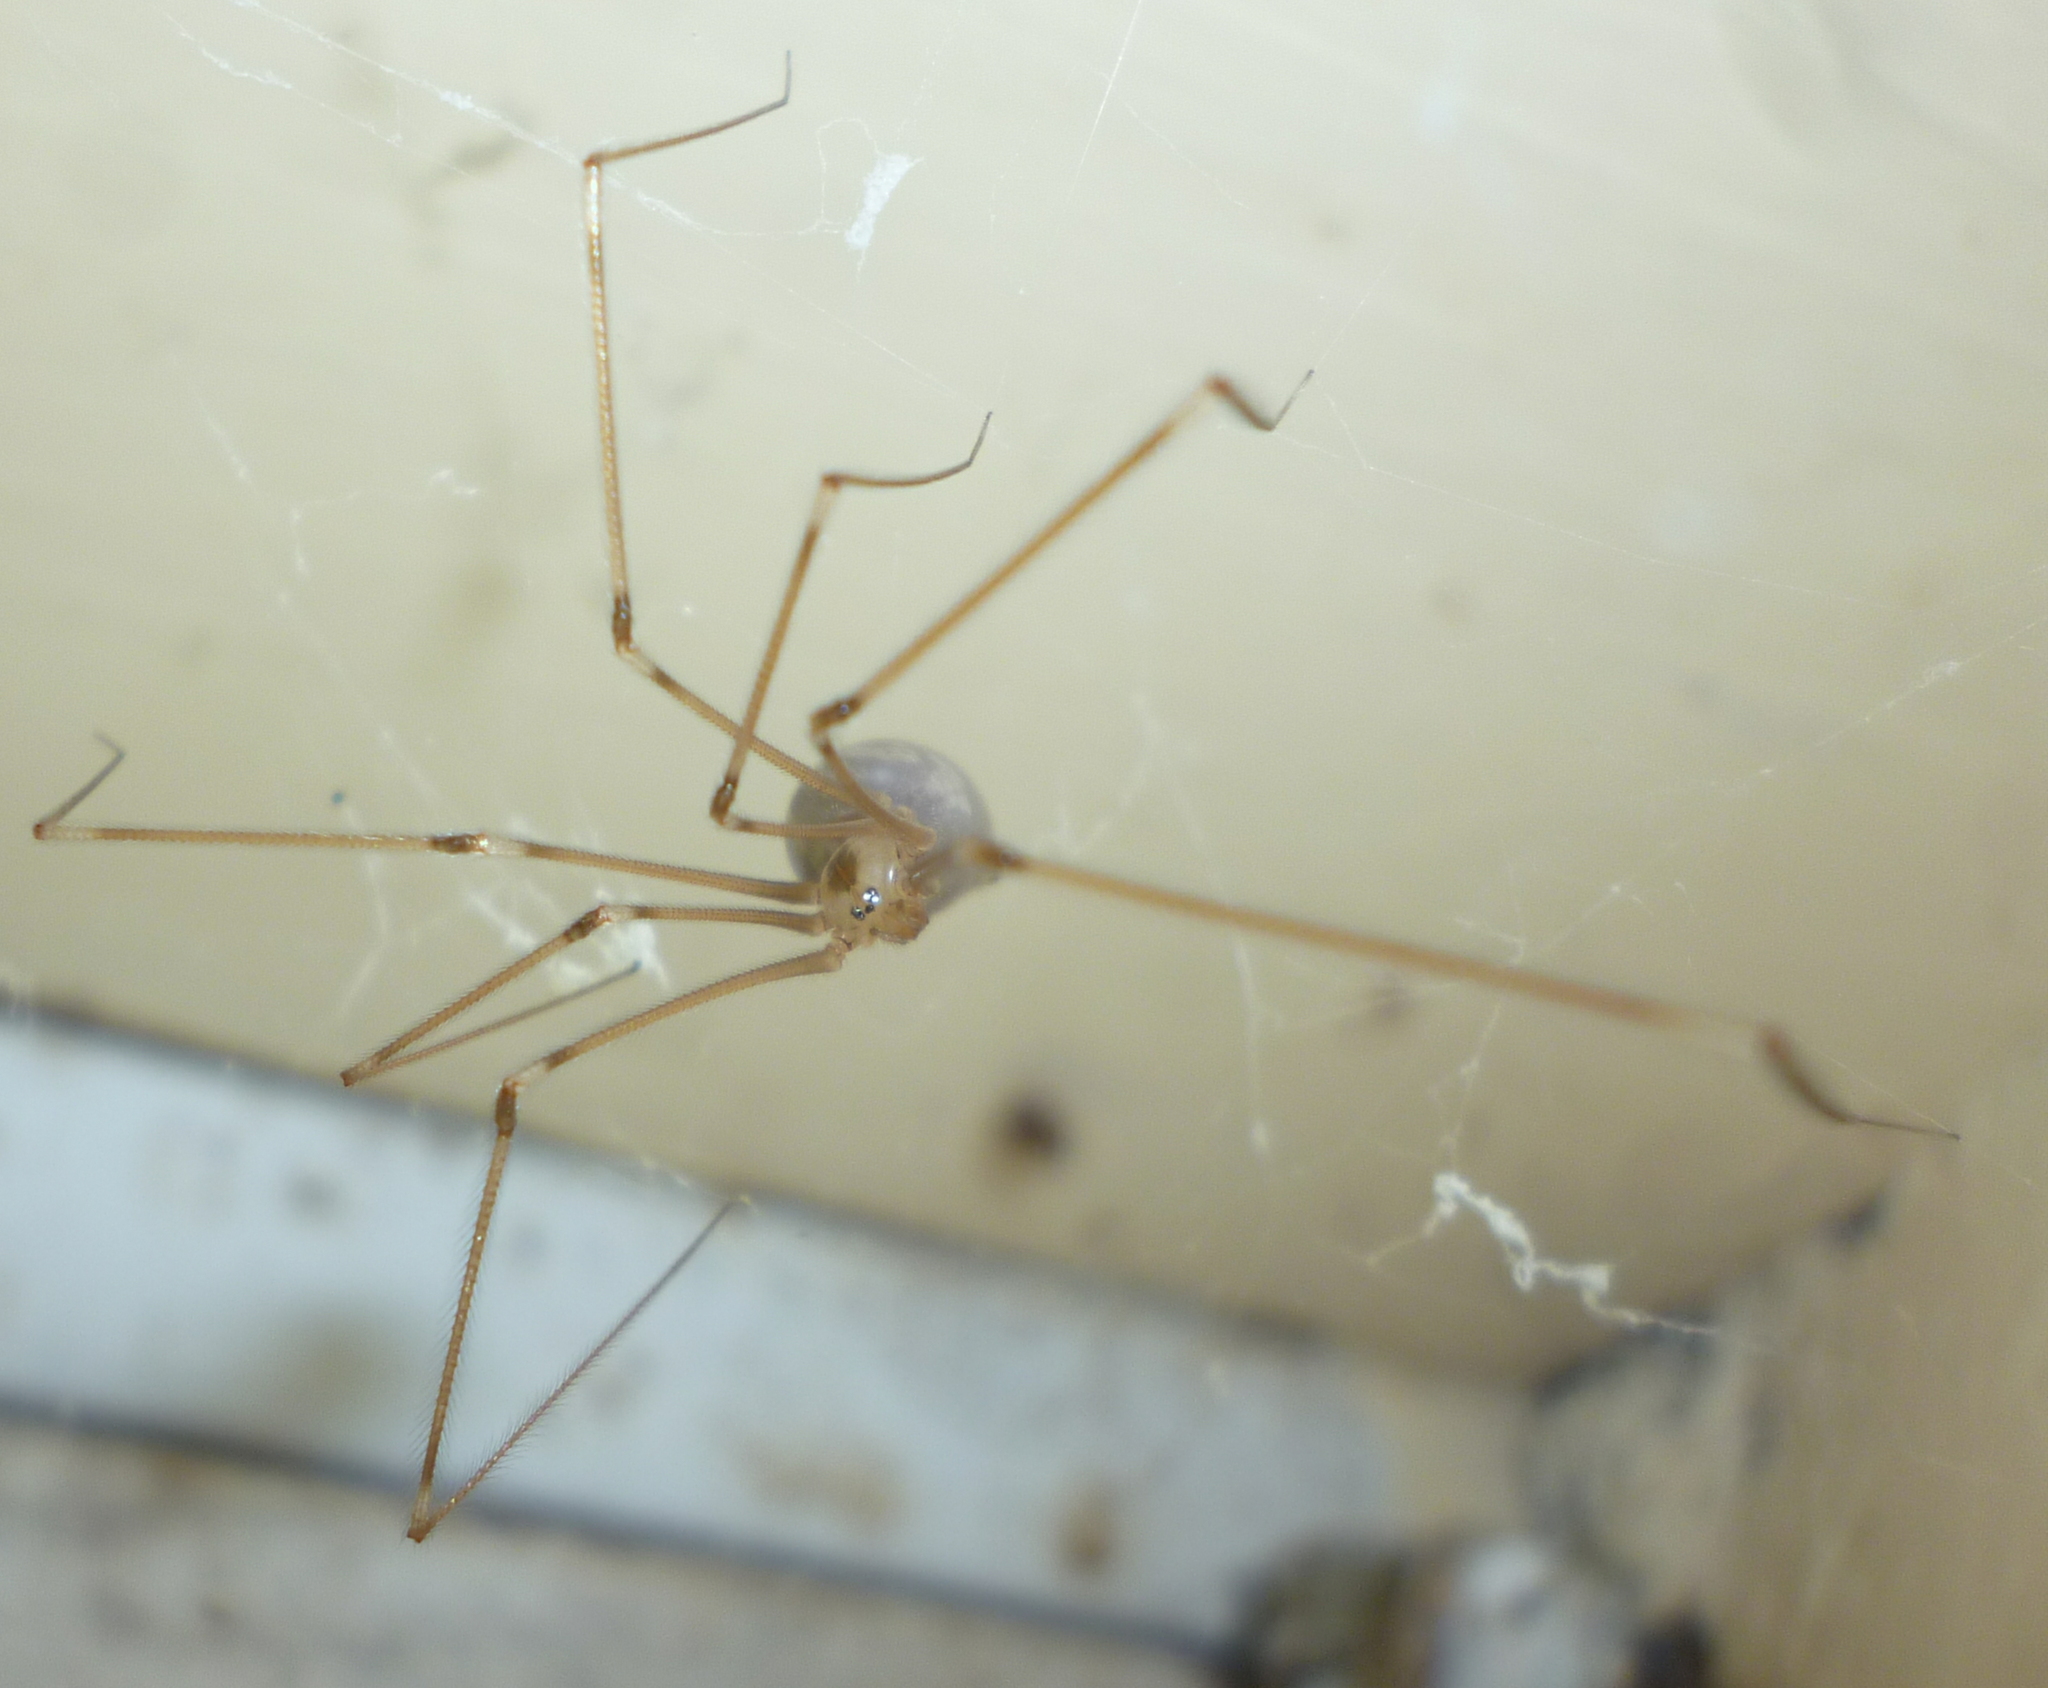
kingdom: Animalia
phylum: Arthropoda
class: Arachnida
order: Araneae
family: Pholcidae
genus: Pholcus
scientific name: Pholcus phalangioides
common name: Longbodied cellar spider
